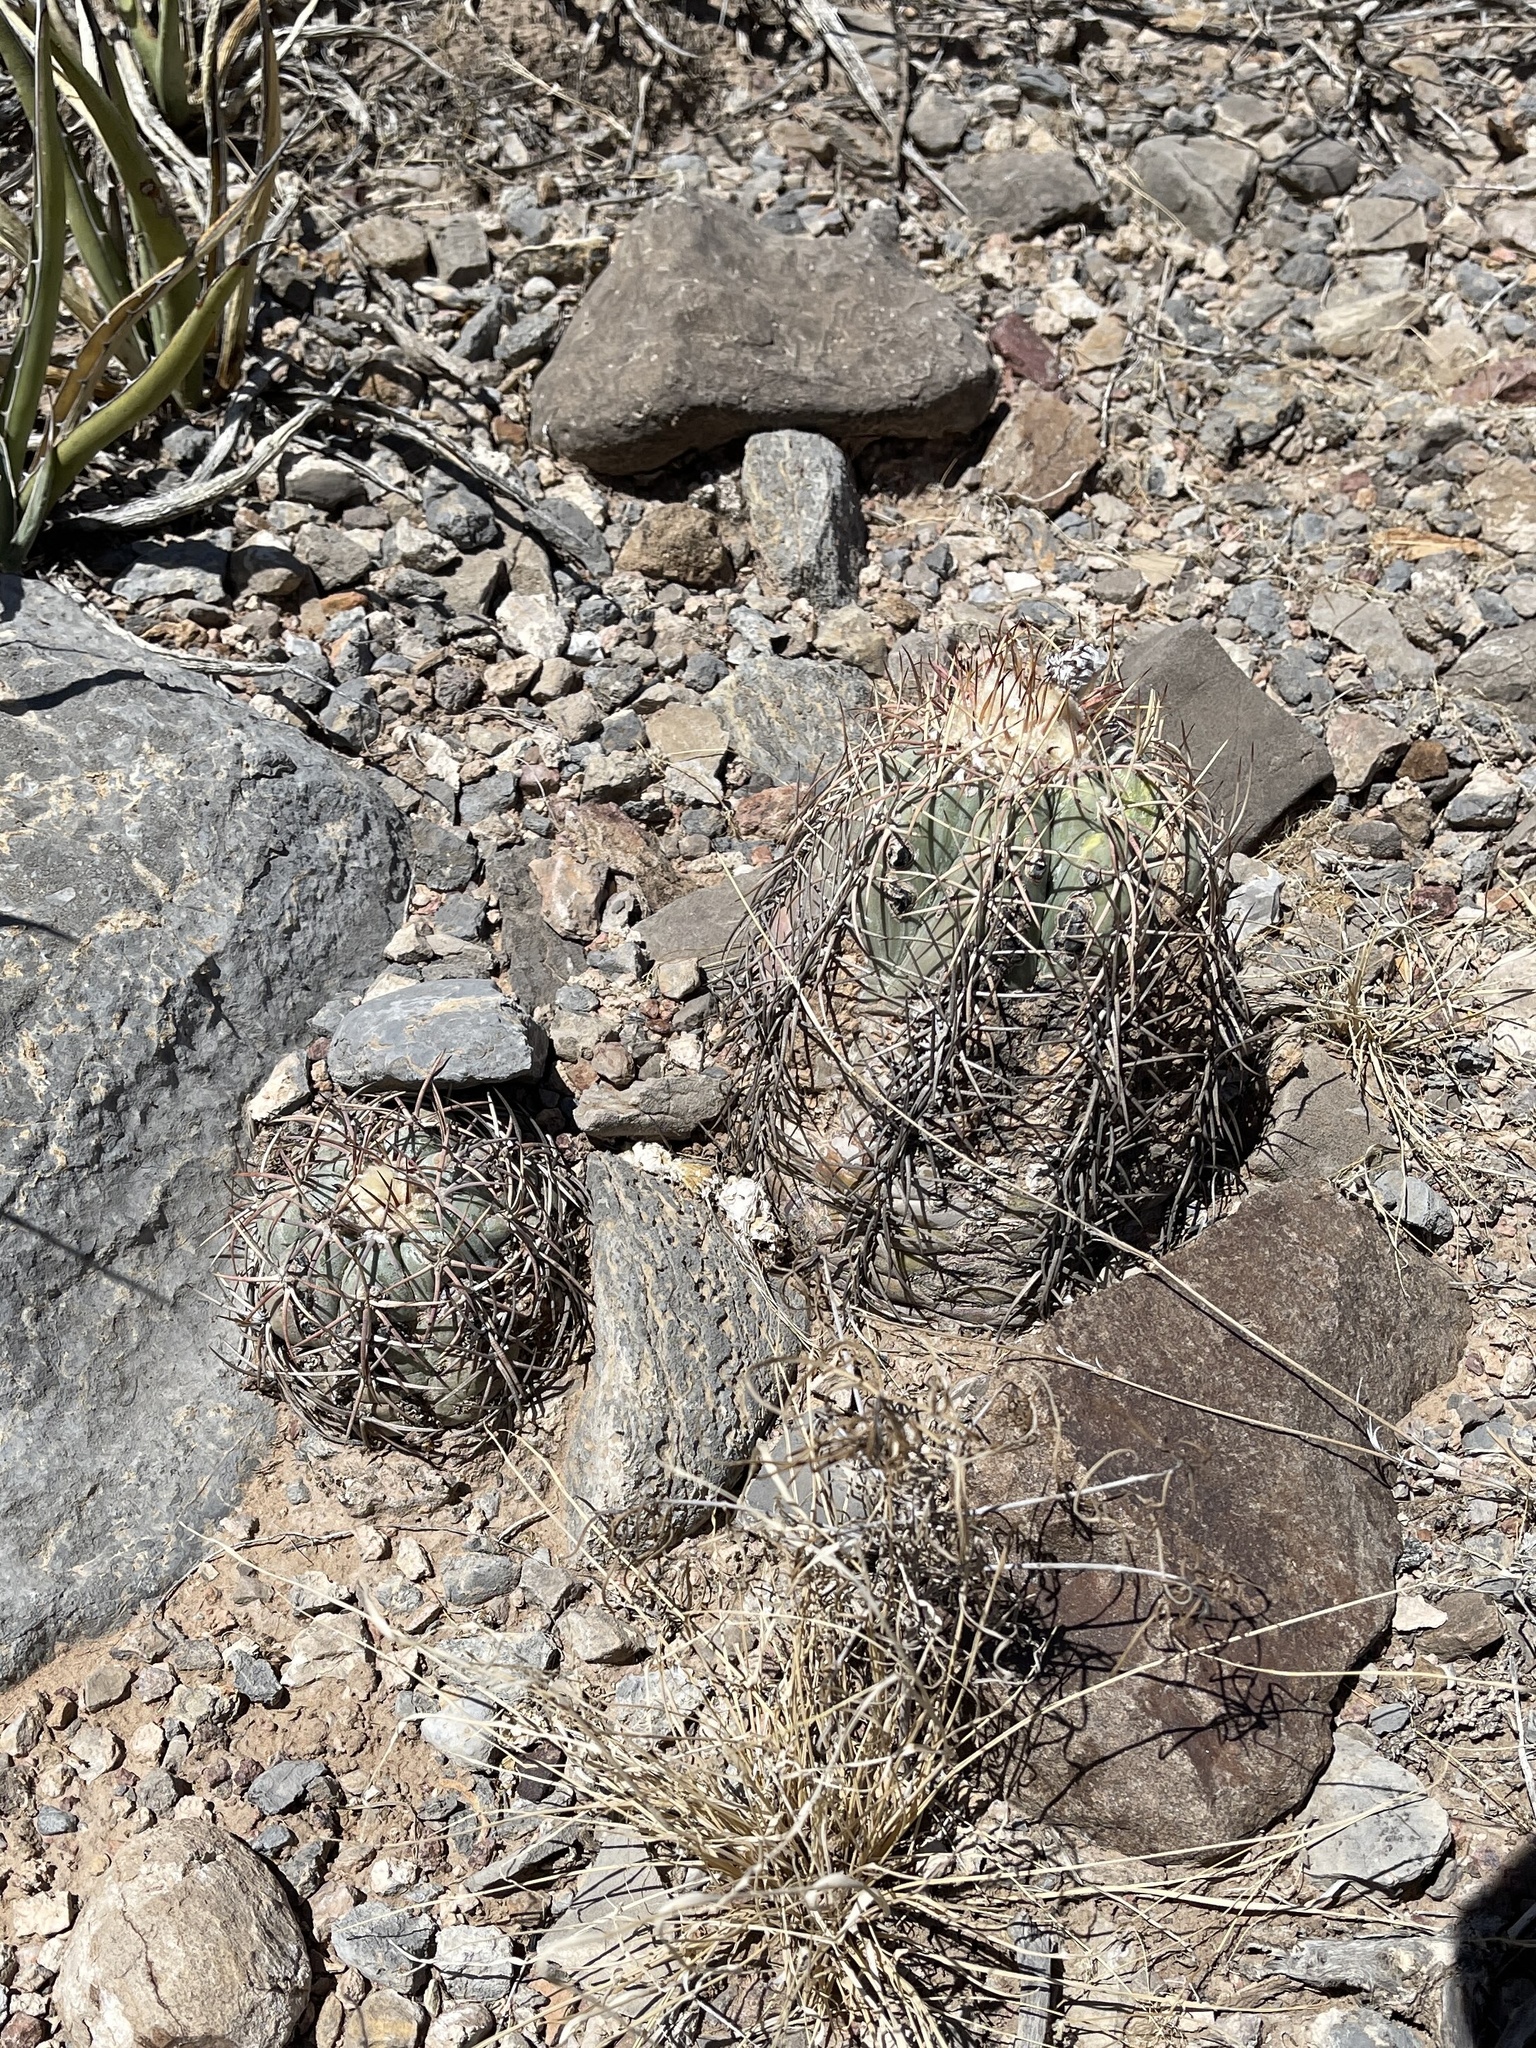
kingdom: Plantae
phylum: Tracheophyta
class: Magnoliopsida
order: Caryophyllales
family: Cactaceae
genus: Echinocactus
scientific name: Echinocactus horizonthalonius
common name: Devilshead
